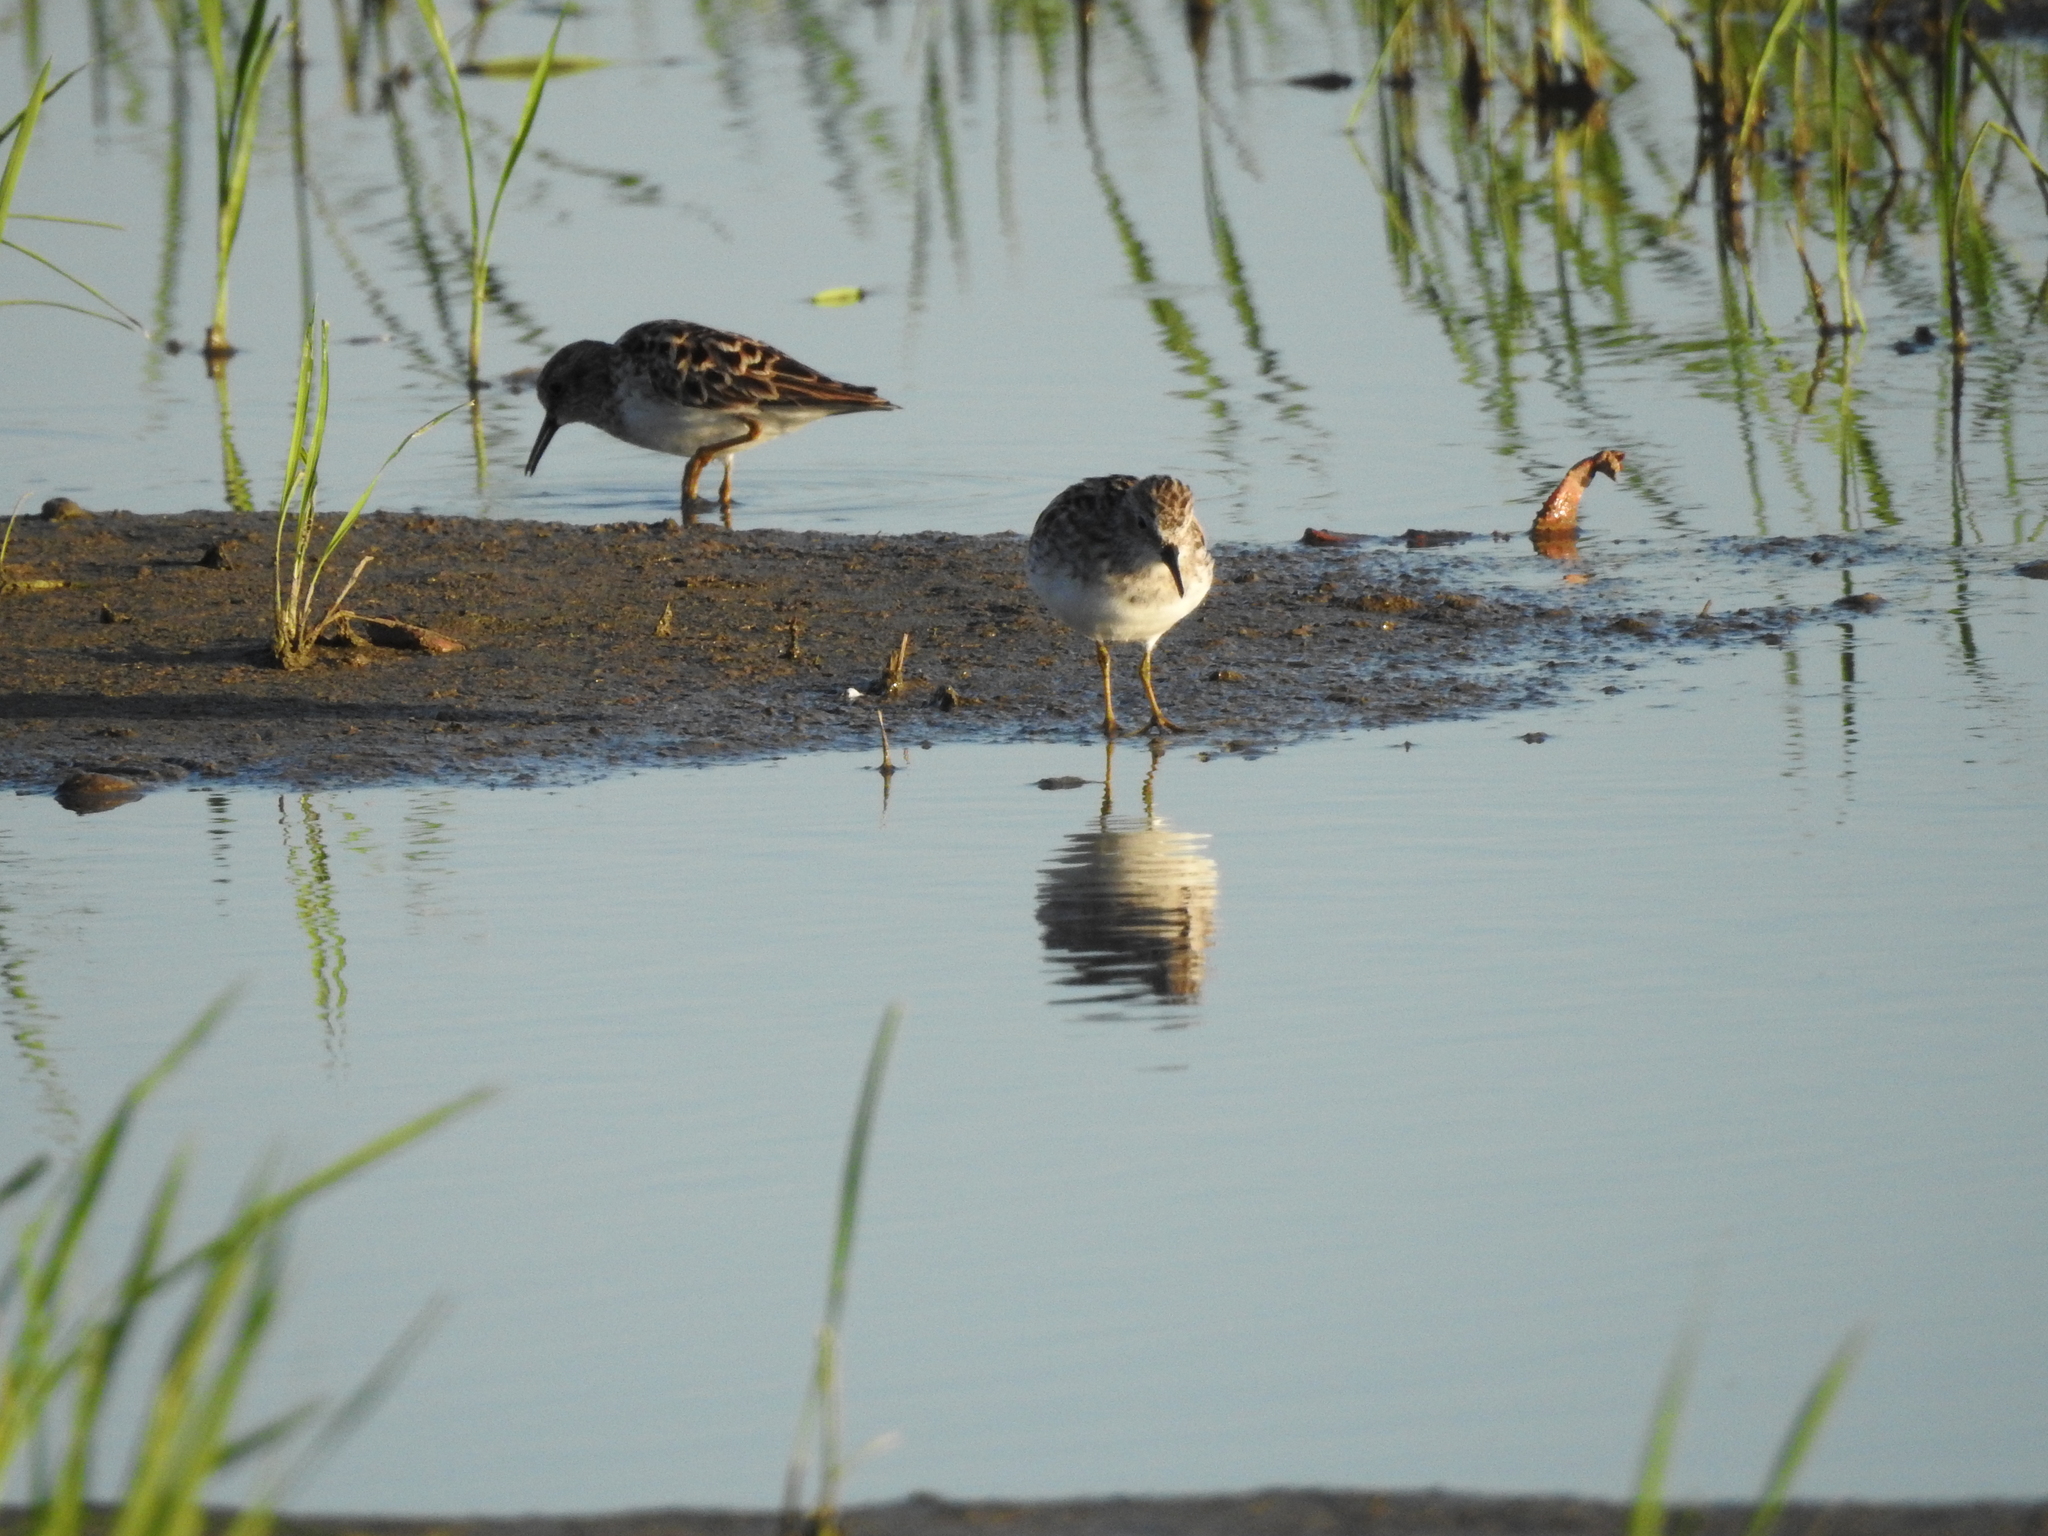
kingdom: Animalia
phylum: Chordata
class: Aves
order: Charadriiformes
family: Scolopacidae
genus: Calidris
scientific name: Calidris minutilla
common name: Least sandpiper
